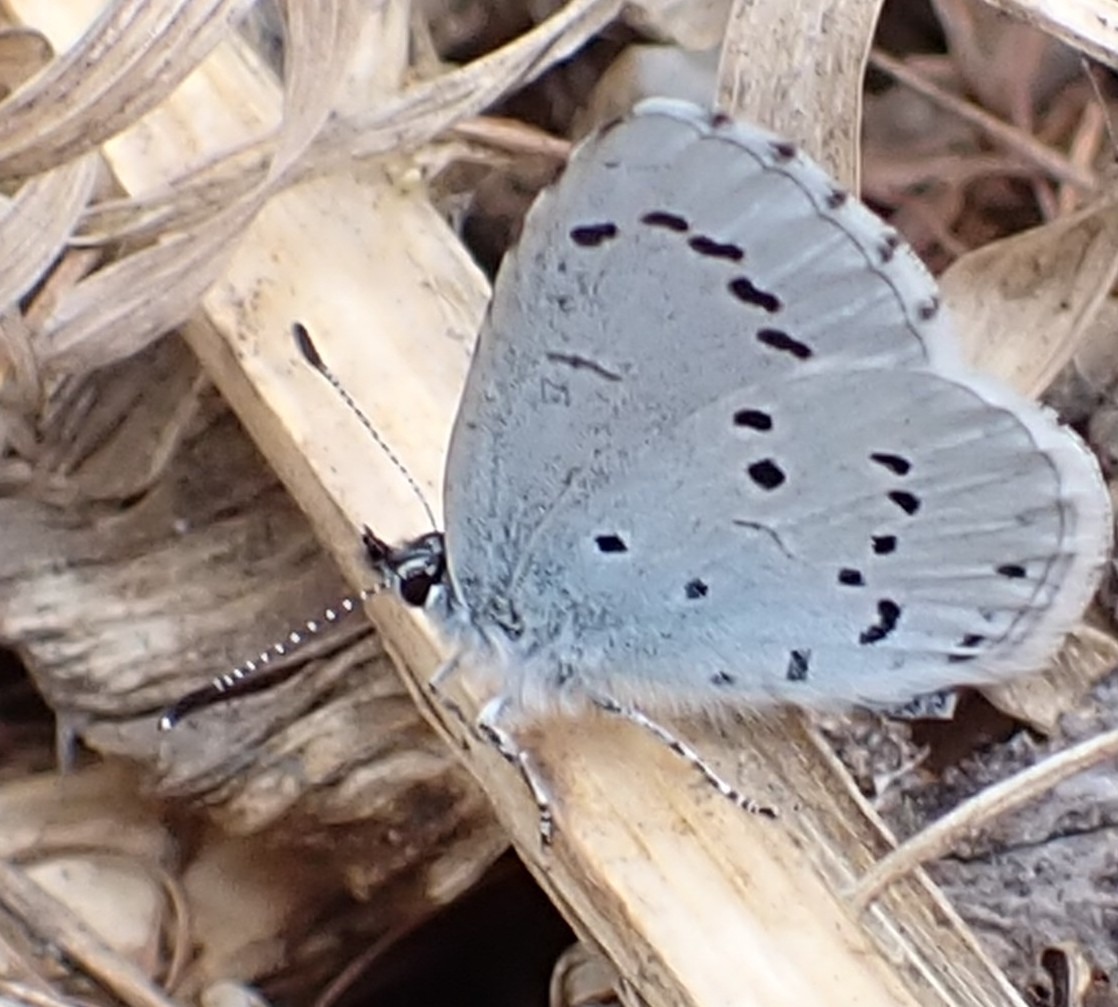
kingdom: Animalia
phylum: Arthropoda
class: Insecta
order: Lepidoptera
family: Lycaenidae
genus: Celastrina
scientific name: Celastrina argiolus
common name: Holly blue
